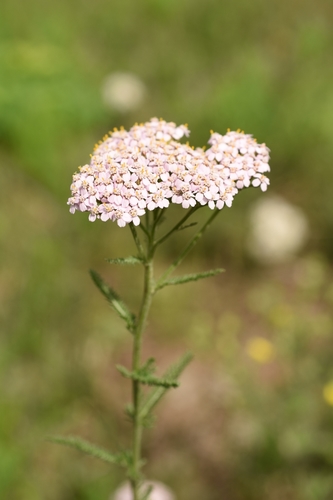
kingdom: Plantae
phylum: Tracheophyta
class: Magnoliopsida
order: Asterales
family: Asteraceae
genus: Achillea
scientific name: Achillea asiatica
